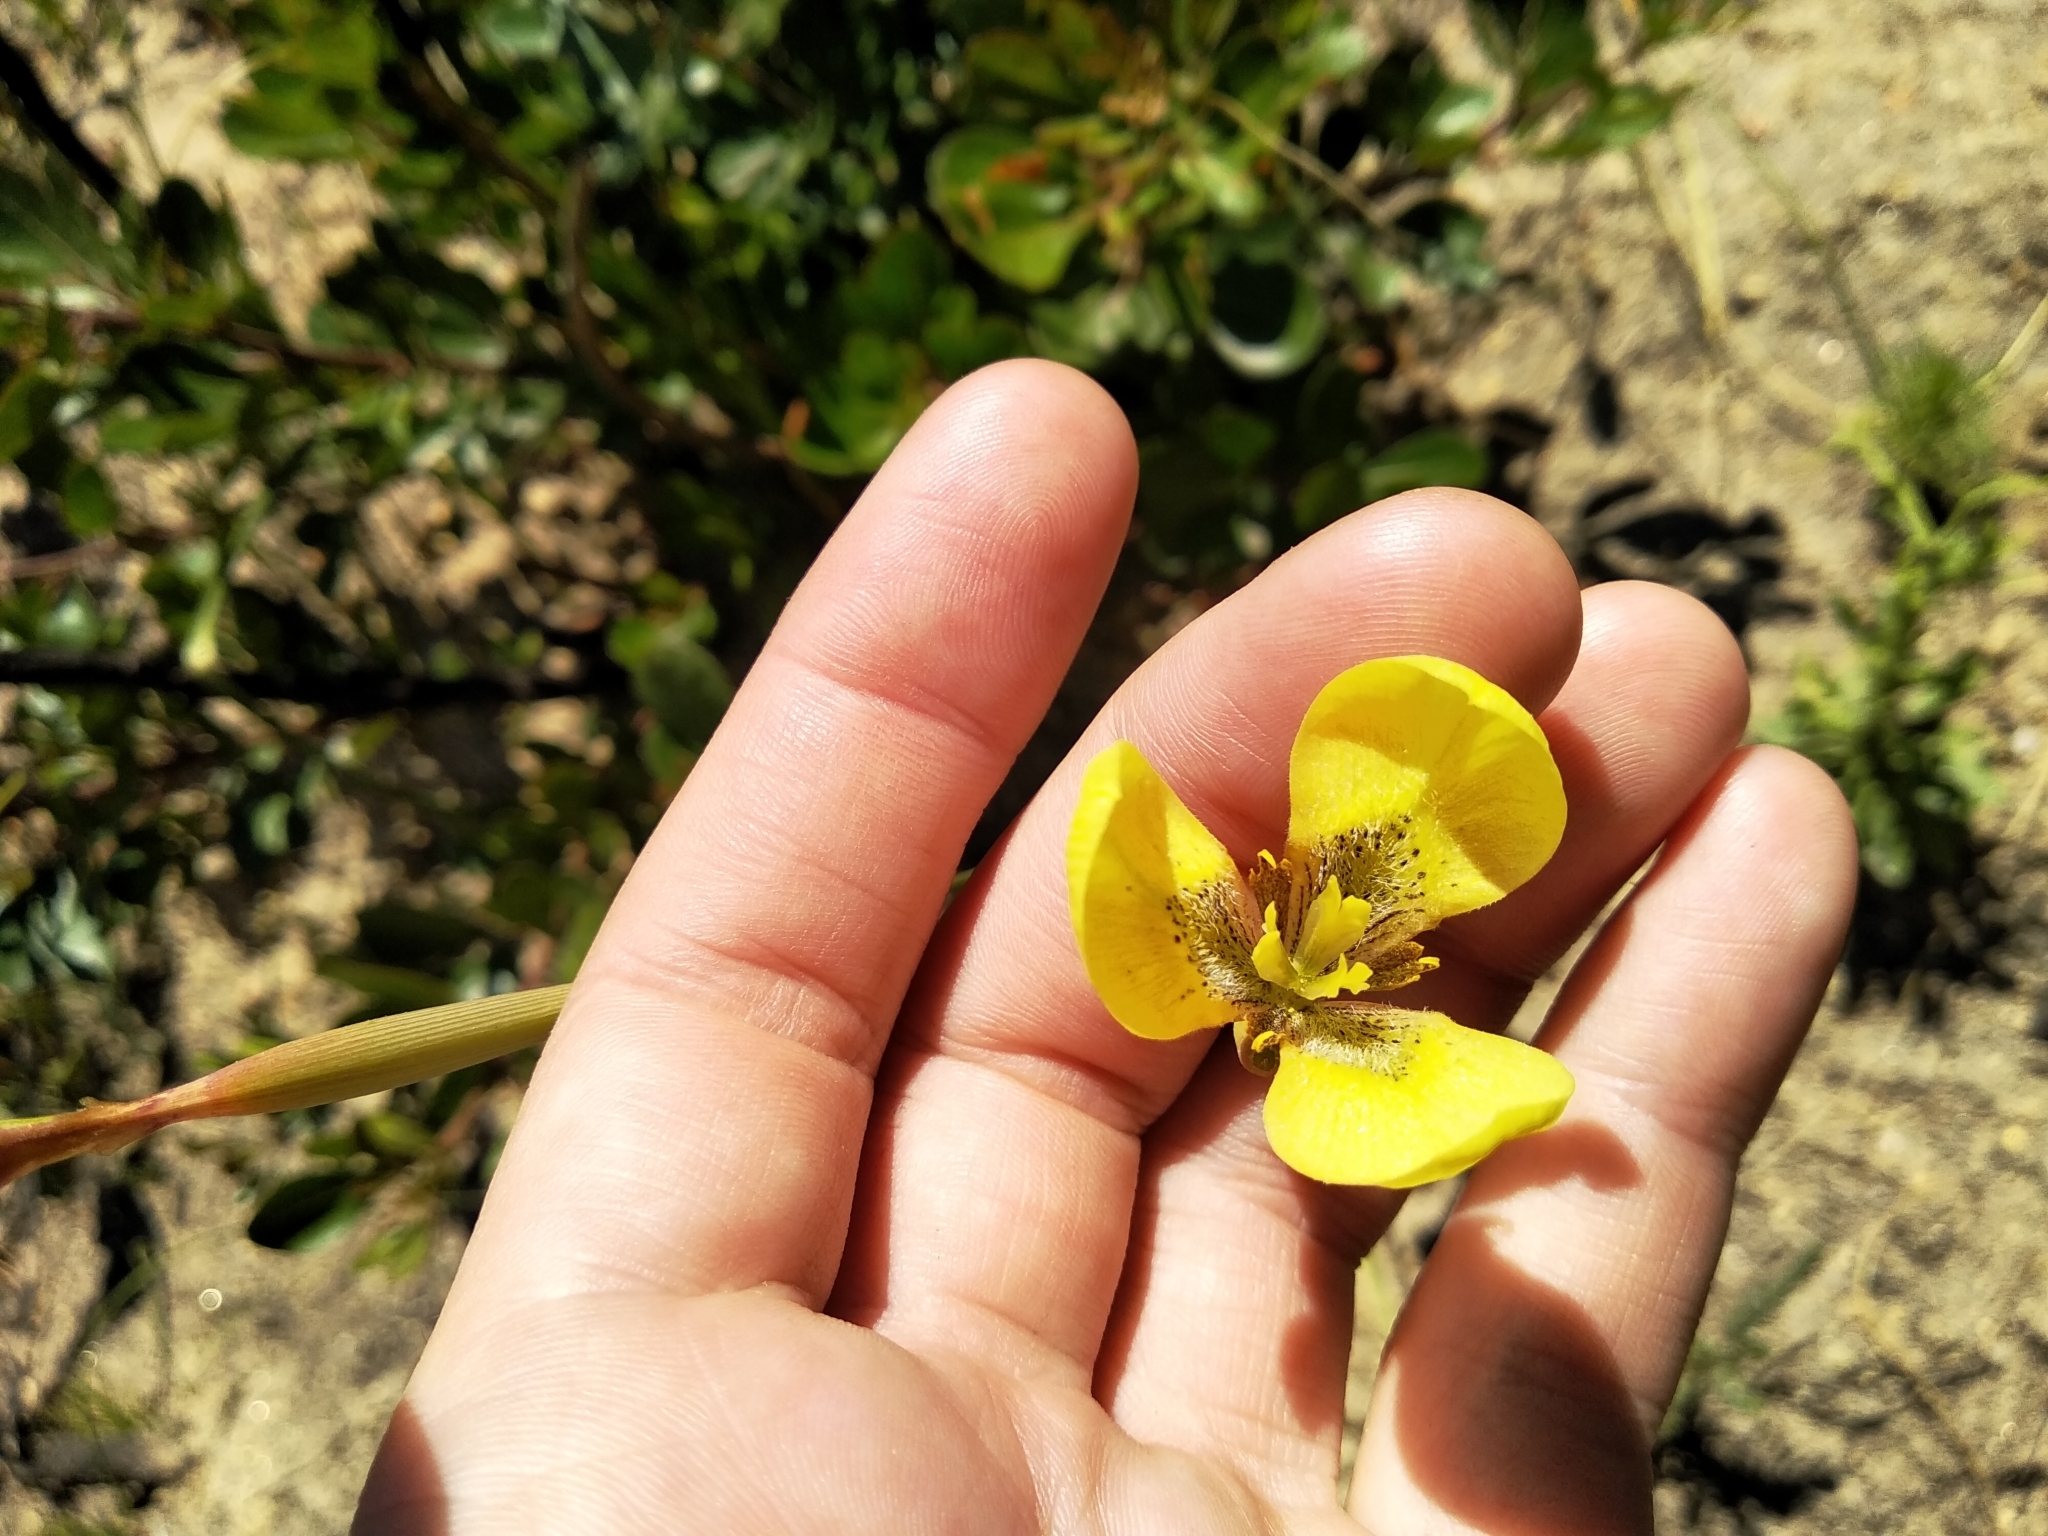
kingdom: Plantae
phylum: Tracheophyta
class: Liliopsida
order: Asparagales
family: Iridaceae
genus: Moraea
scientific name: Moraea bellendenii
